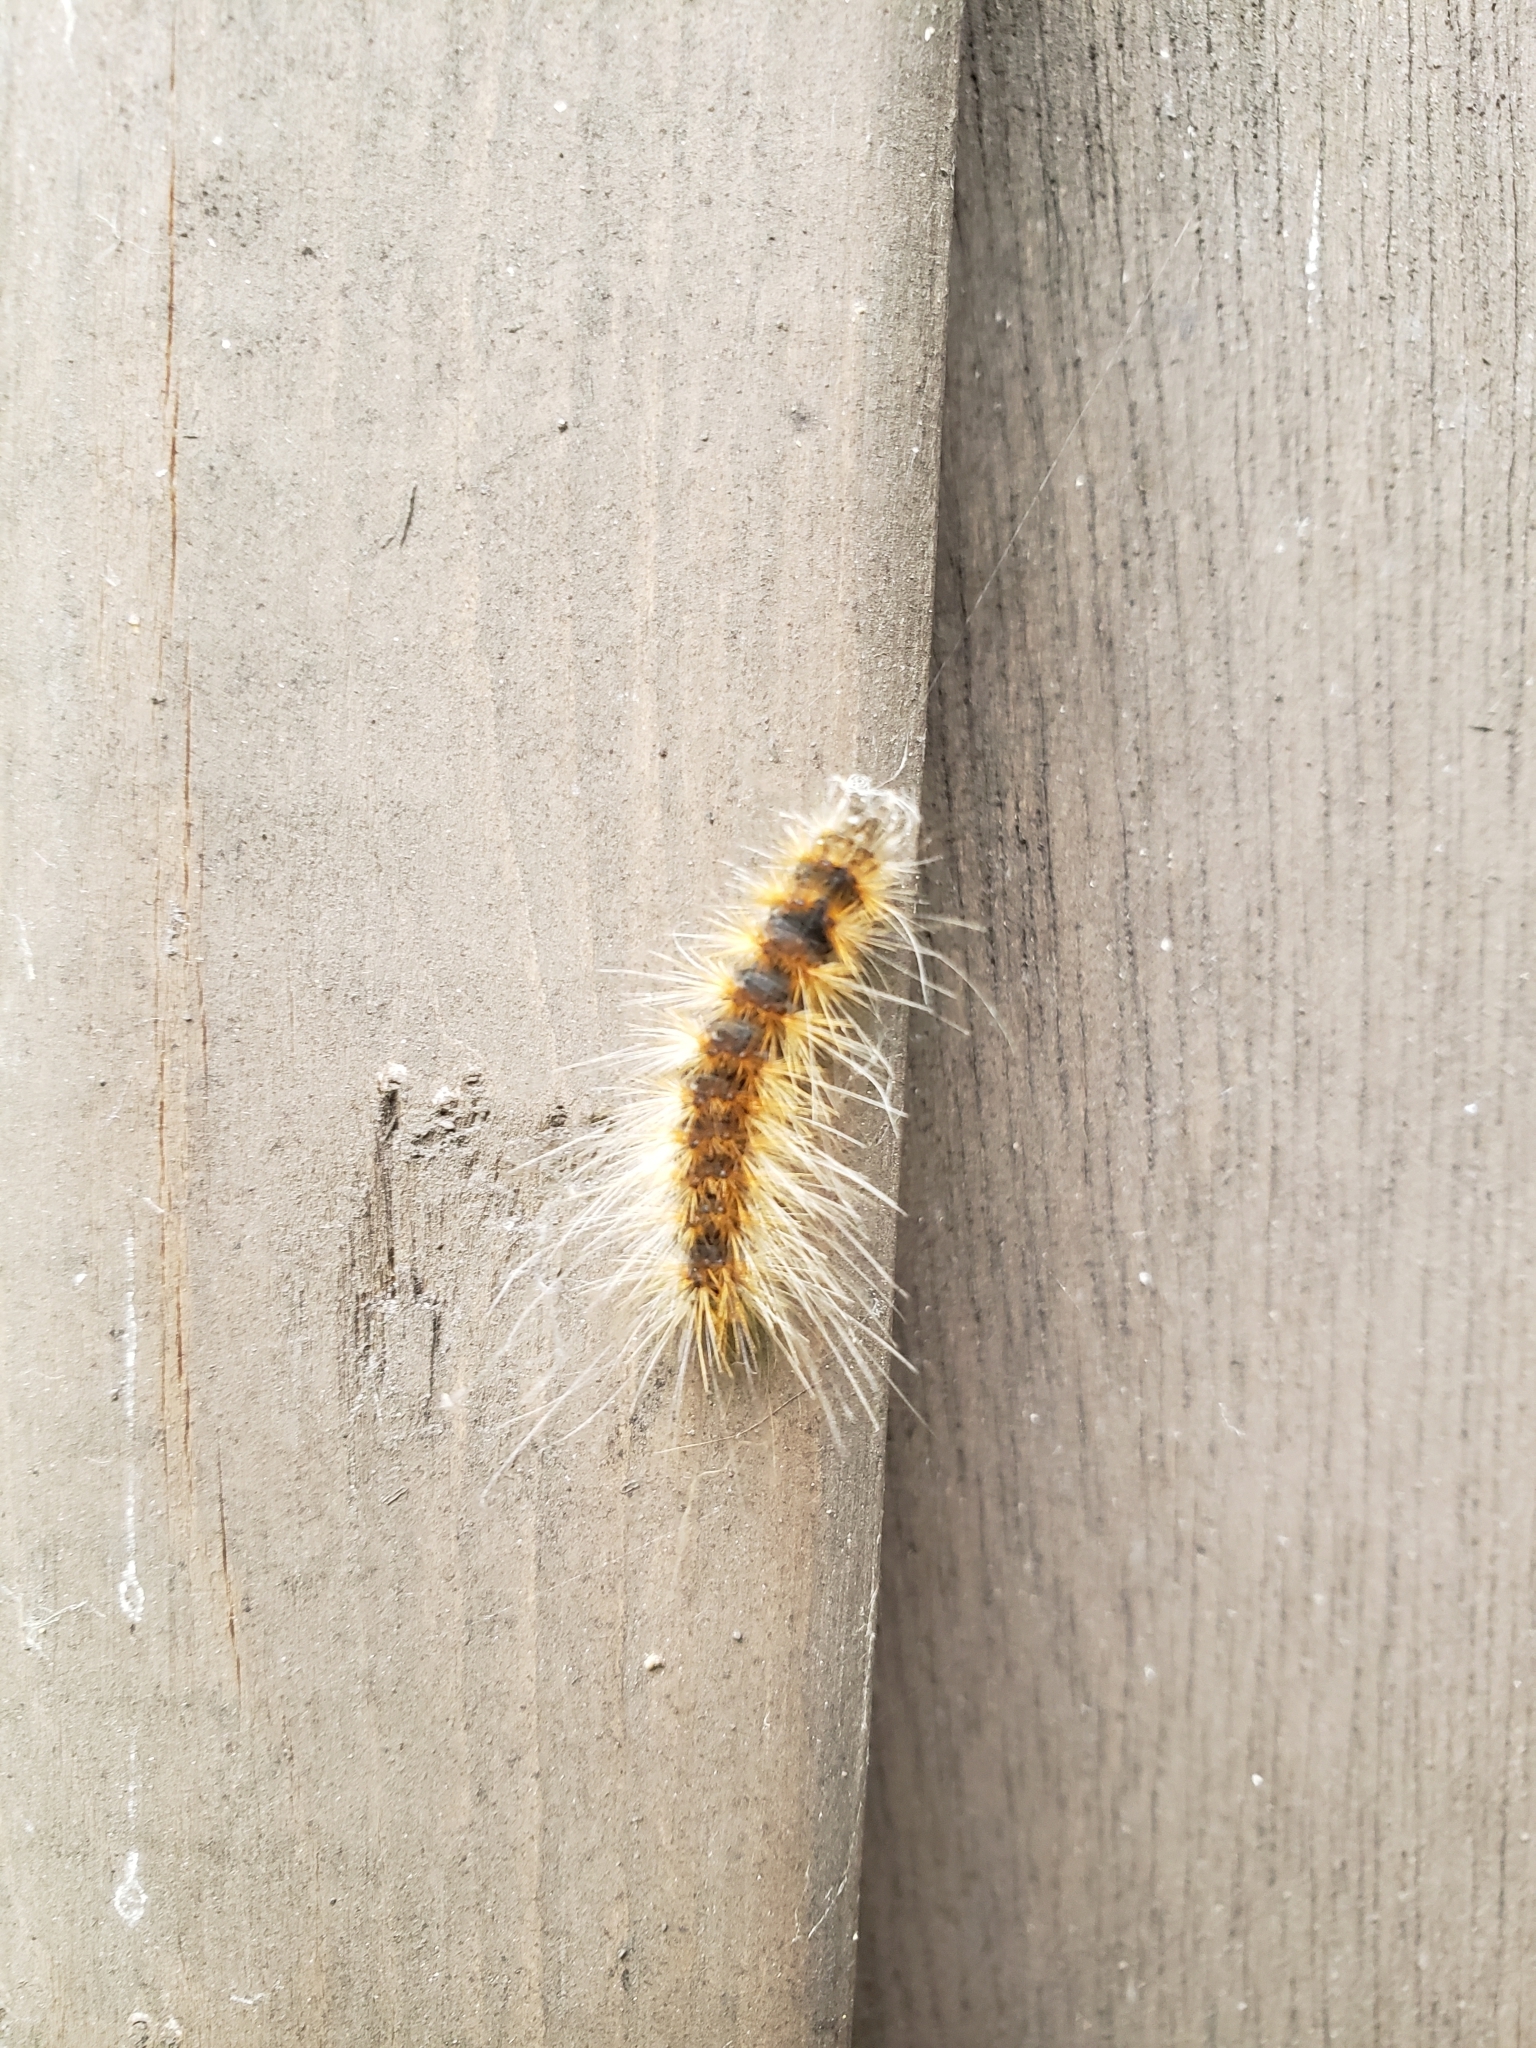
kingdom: Animalia
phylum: Arthropoda
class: Insecta
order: Lepidoptera
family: Erebidae
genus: Hyphantria
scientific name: Hyphantria cunea
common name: American white moth
